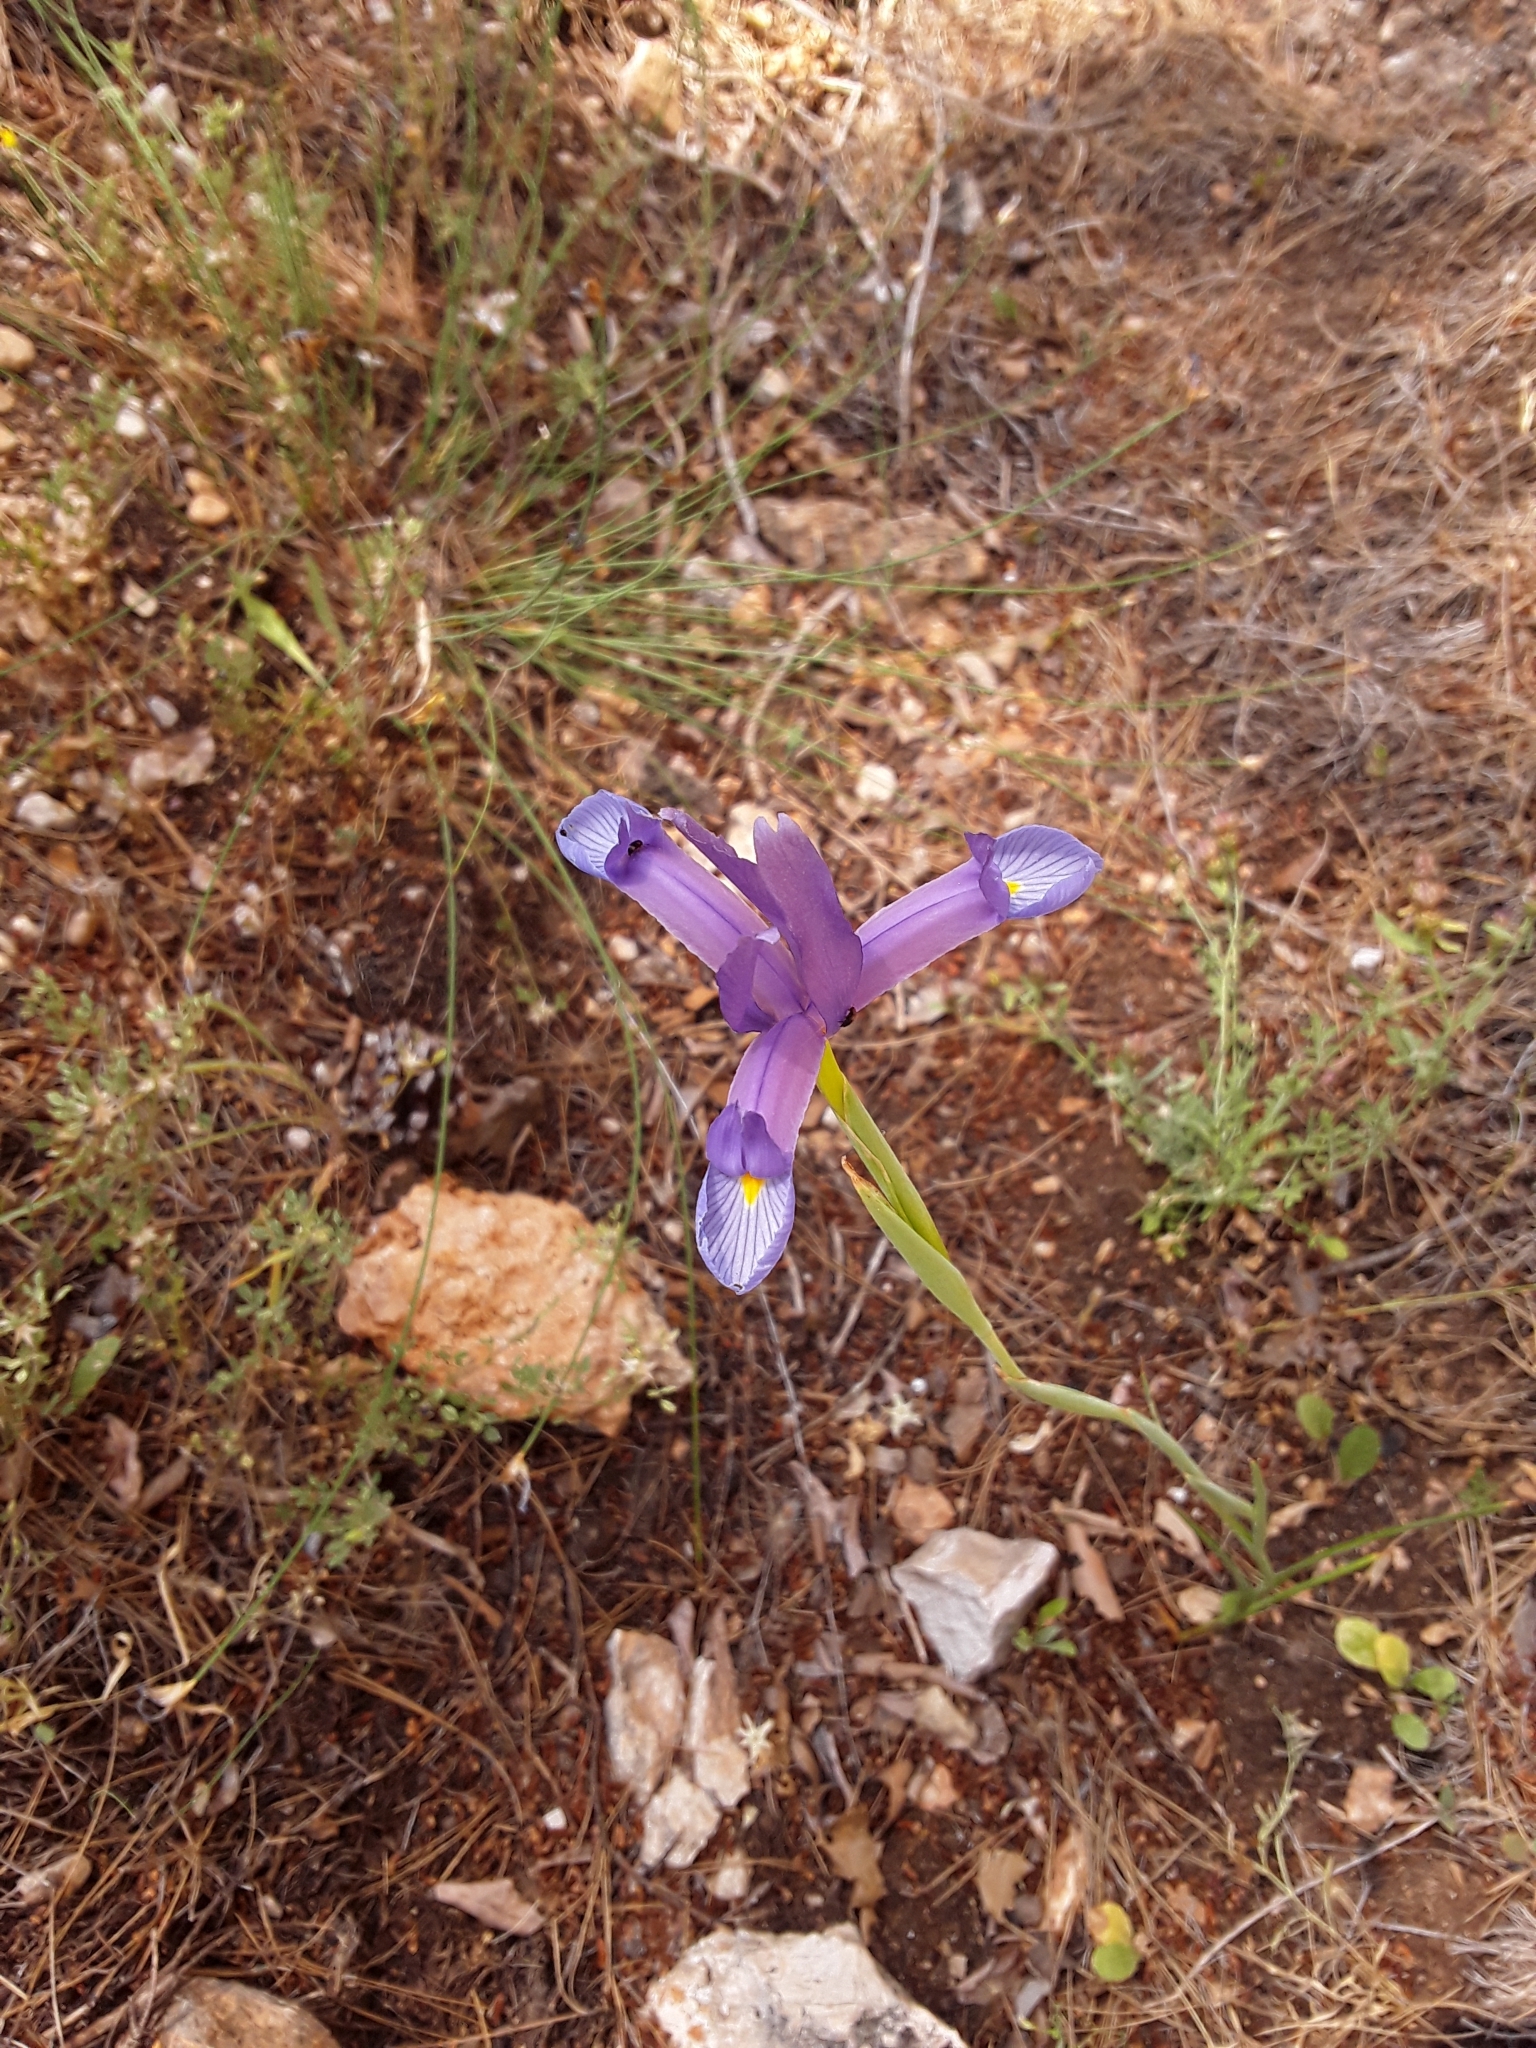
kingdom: Plantae
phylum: Tracheophyta
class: Liliopsida
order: Asparagales
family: Iridaceae
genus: Iris
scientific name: Iris xiphium
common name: Spanish iris
